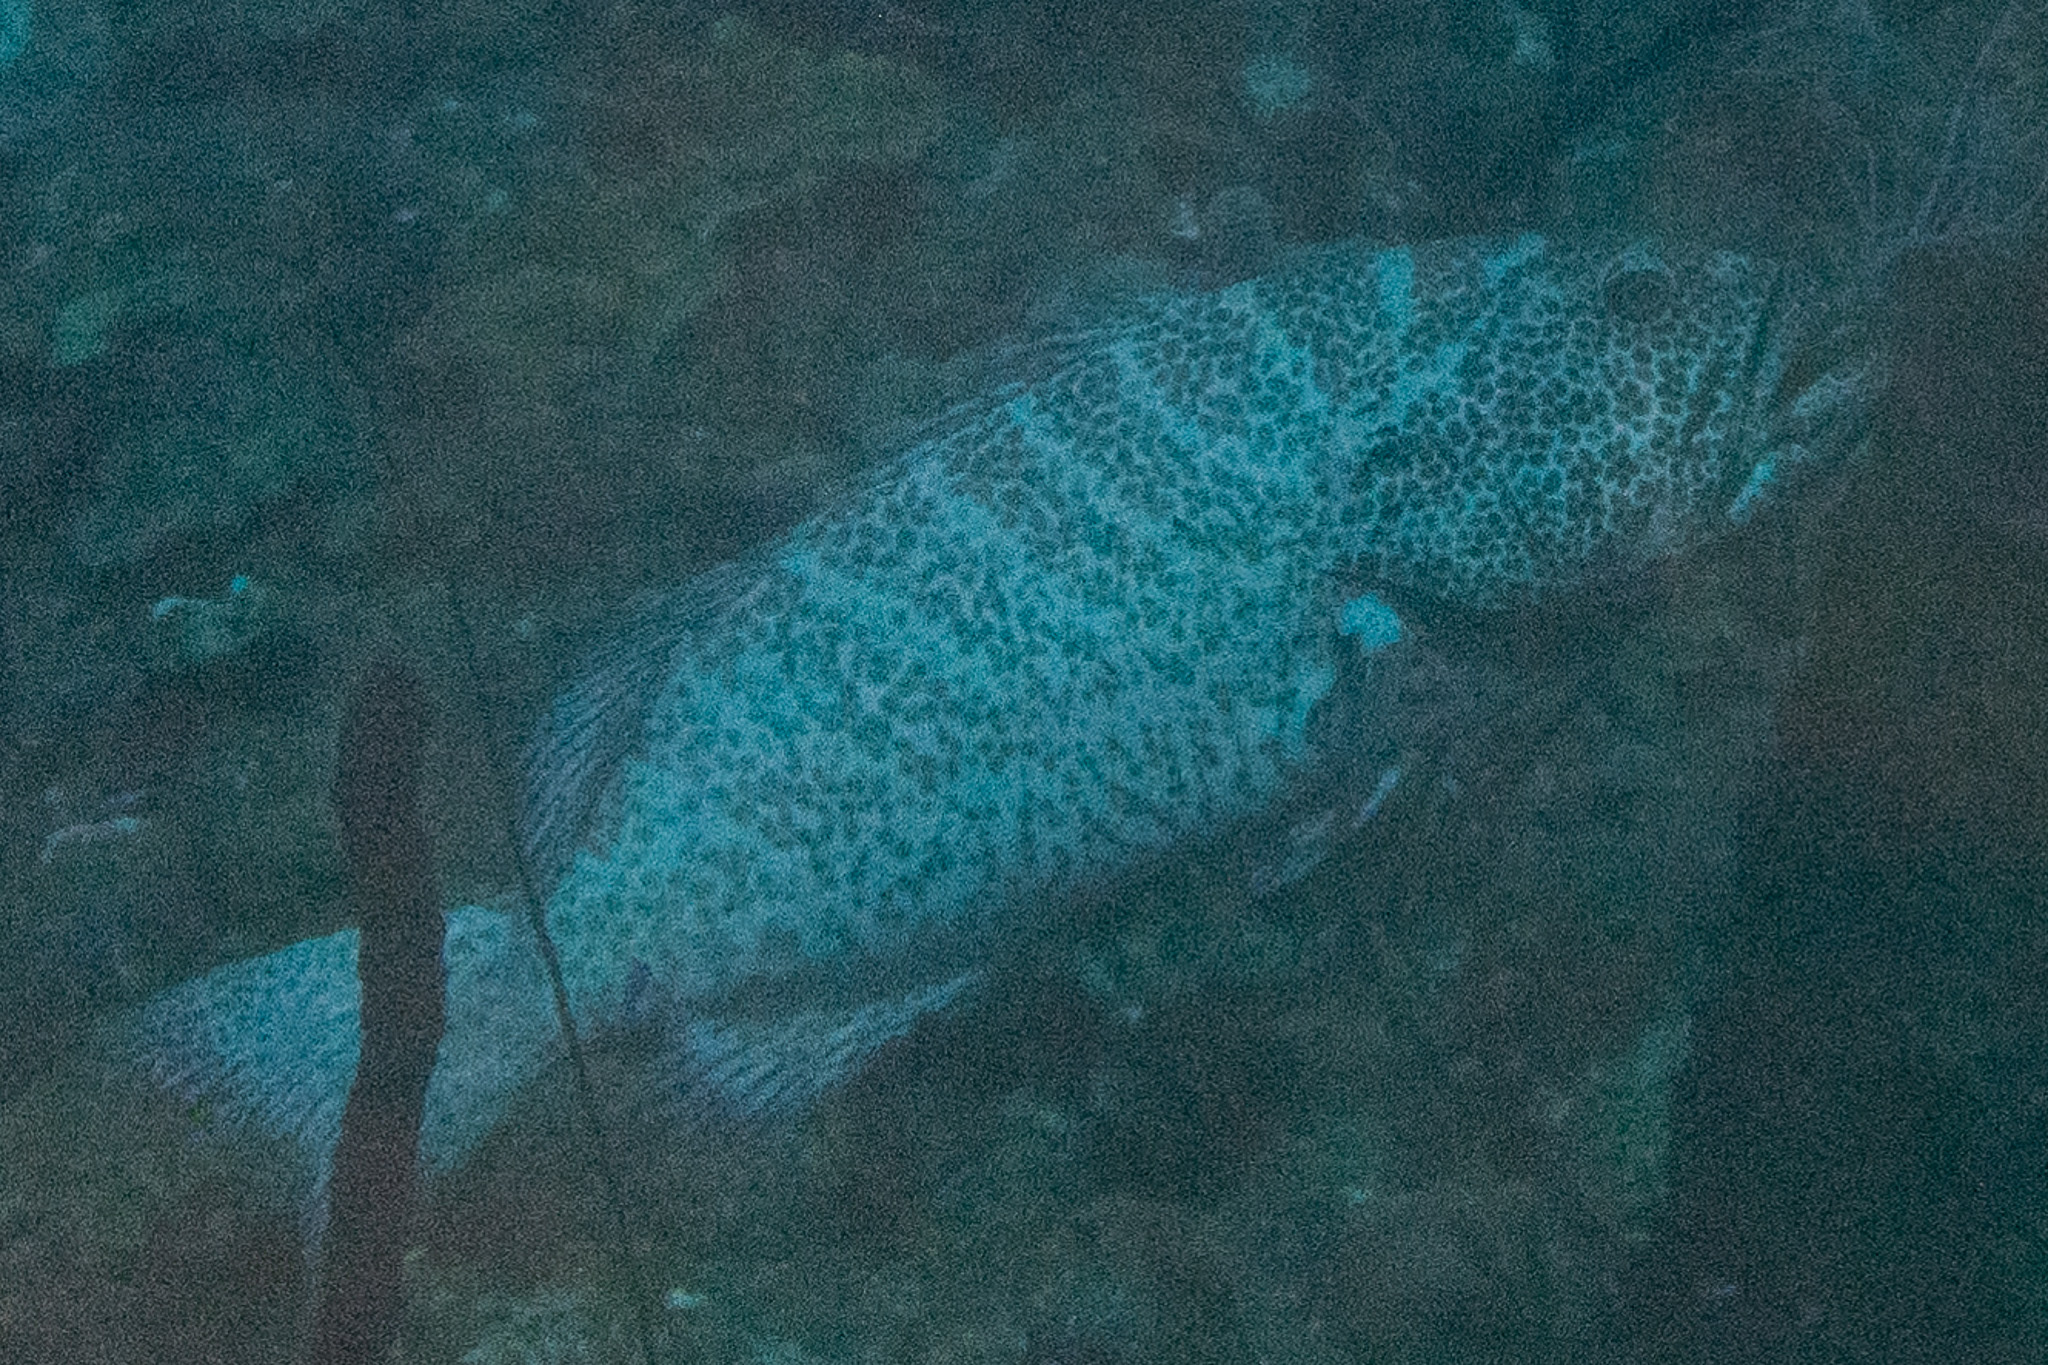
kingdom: Animalia
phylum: Chordata
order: Perciformes
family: Serranidae
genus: Mycteroperca
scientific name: Mycteroperca tigris
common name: Tiger grouper
